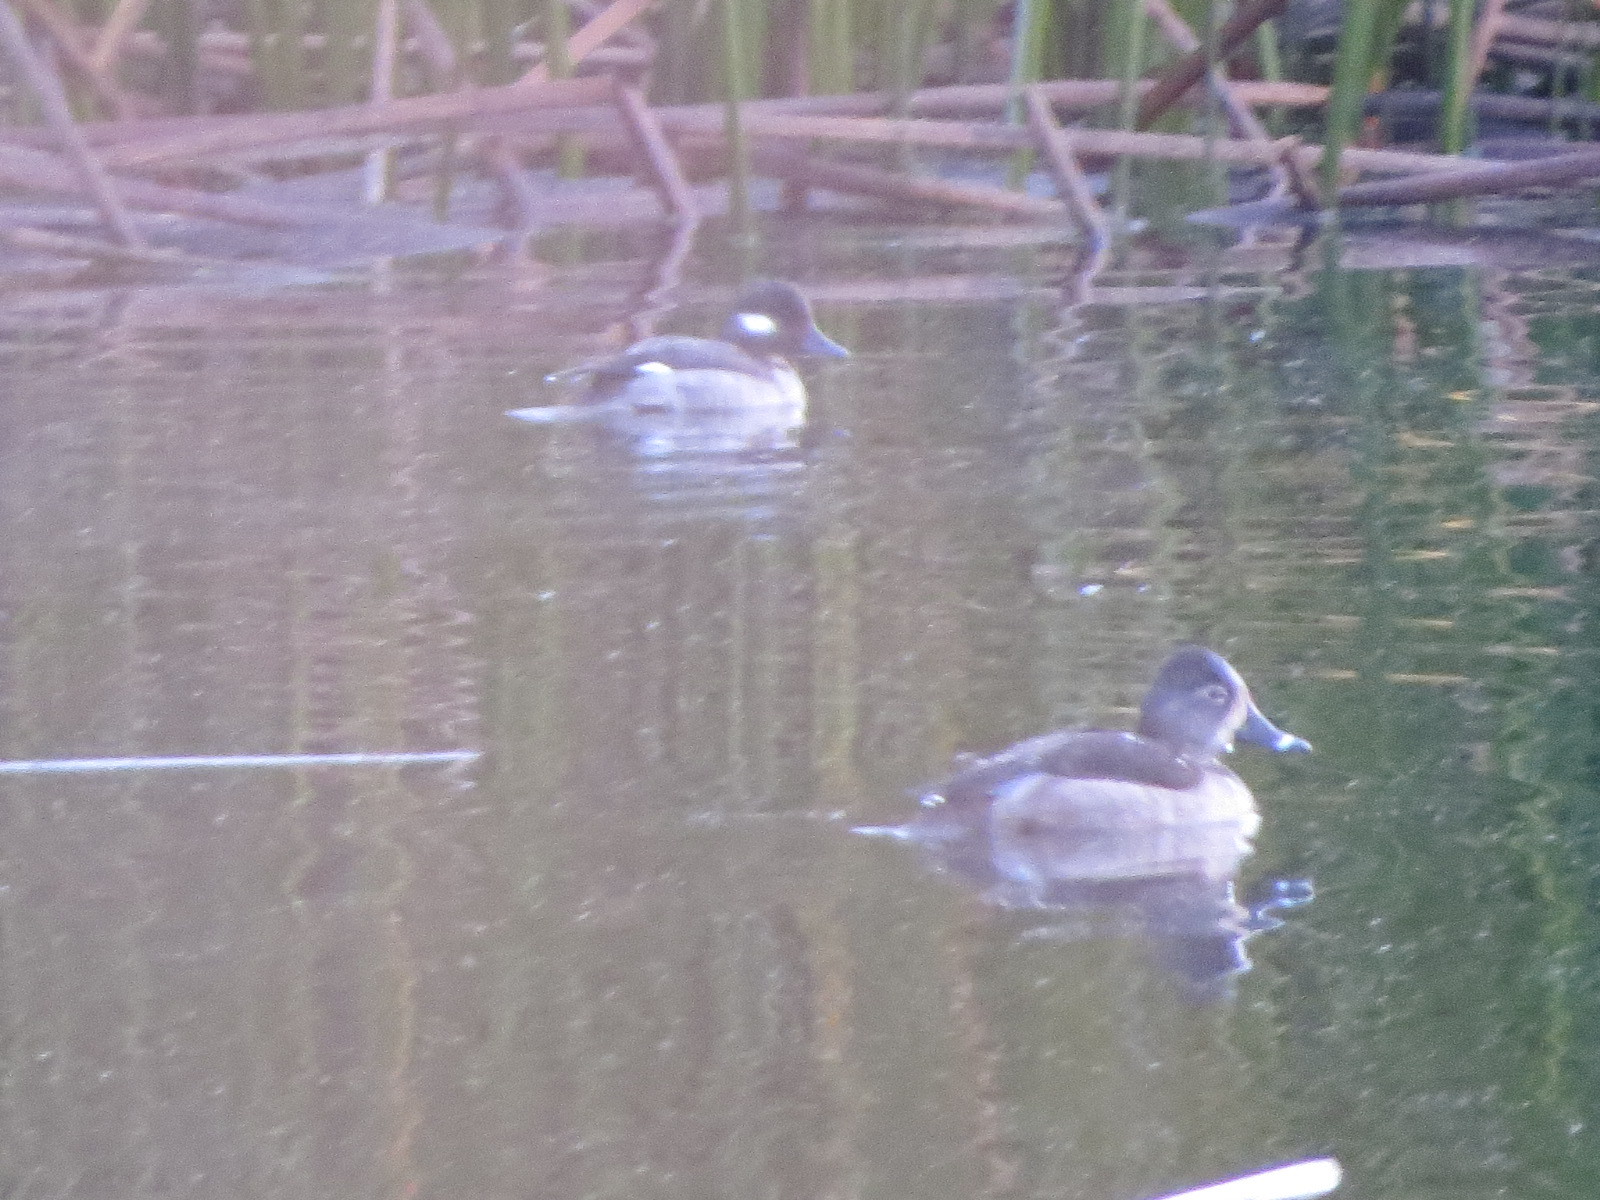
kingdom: Animalia
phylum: Chordata
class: Aves
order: Anseriformes
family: Anatidae
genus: Aythya
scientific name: Aythya collaris
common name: Ring-necked duck
